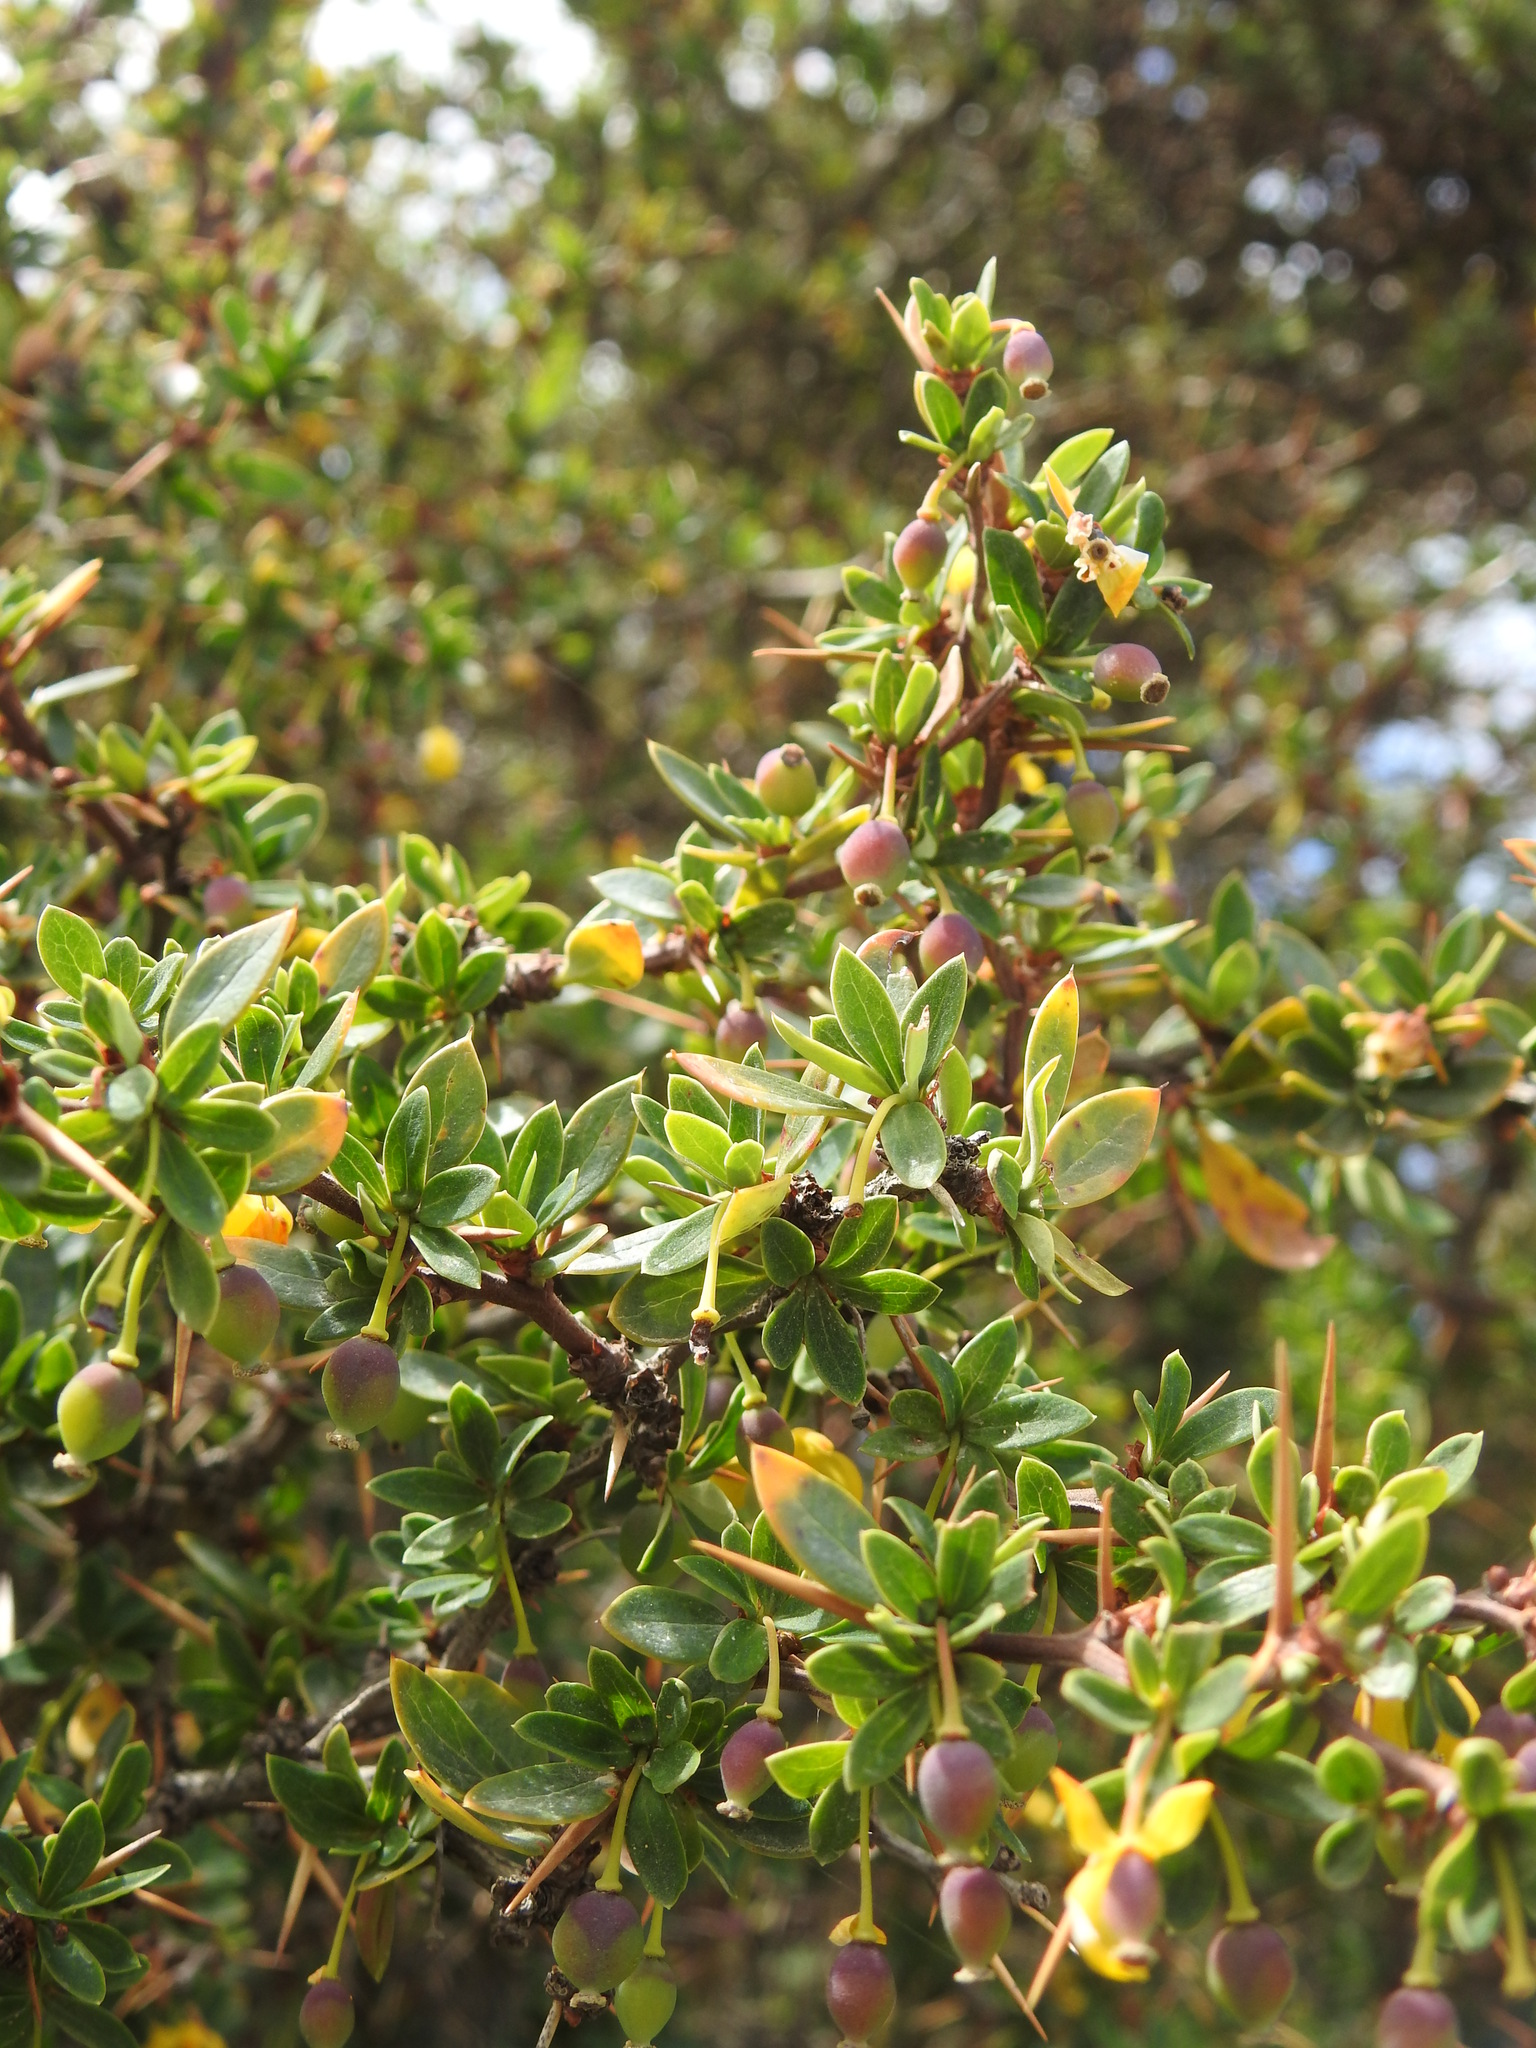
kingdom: Plantae
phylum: Tracheophyta
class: Magnoliopsida
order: Ranunculales
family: Berberidaceae
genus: Berberis
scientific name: Berberis microphylla
